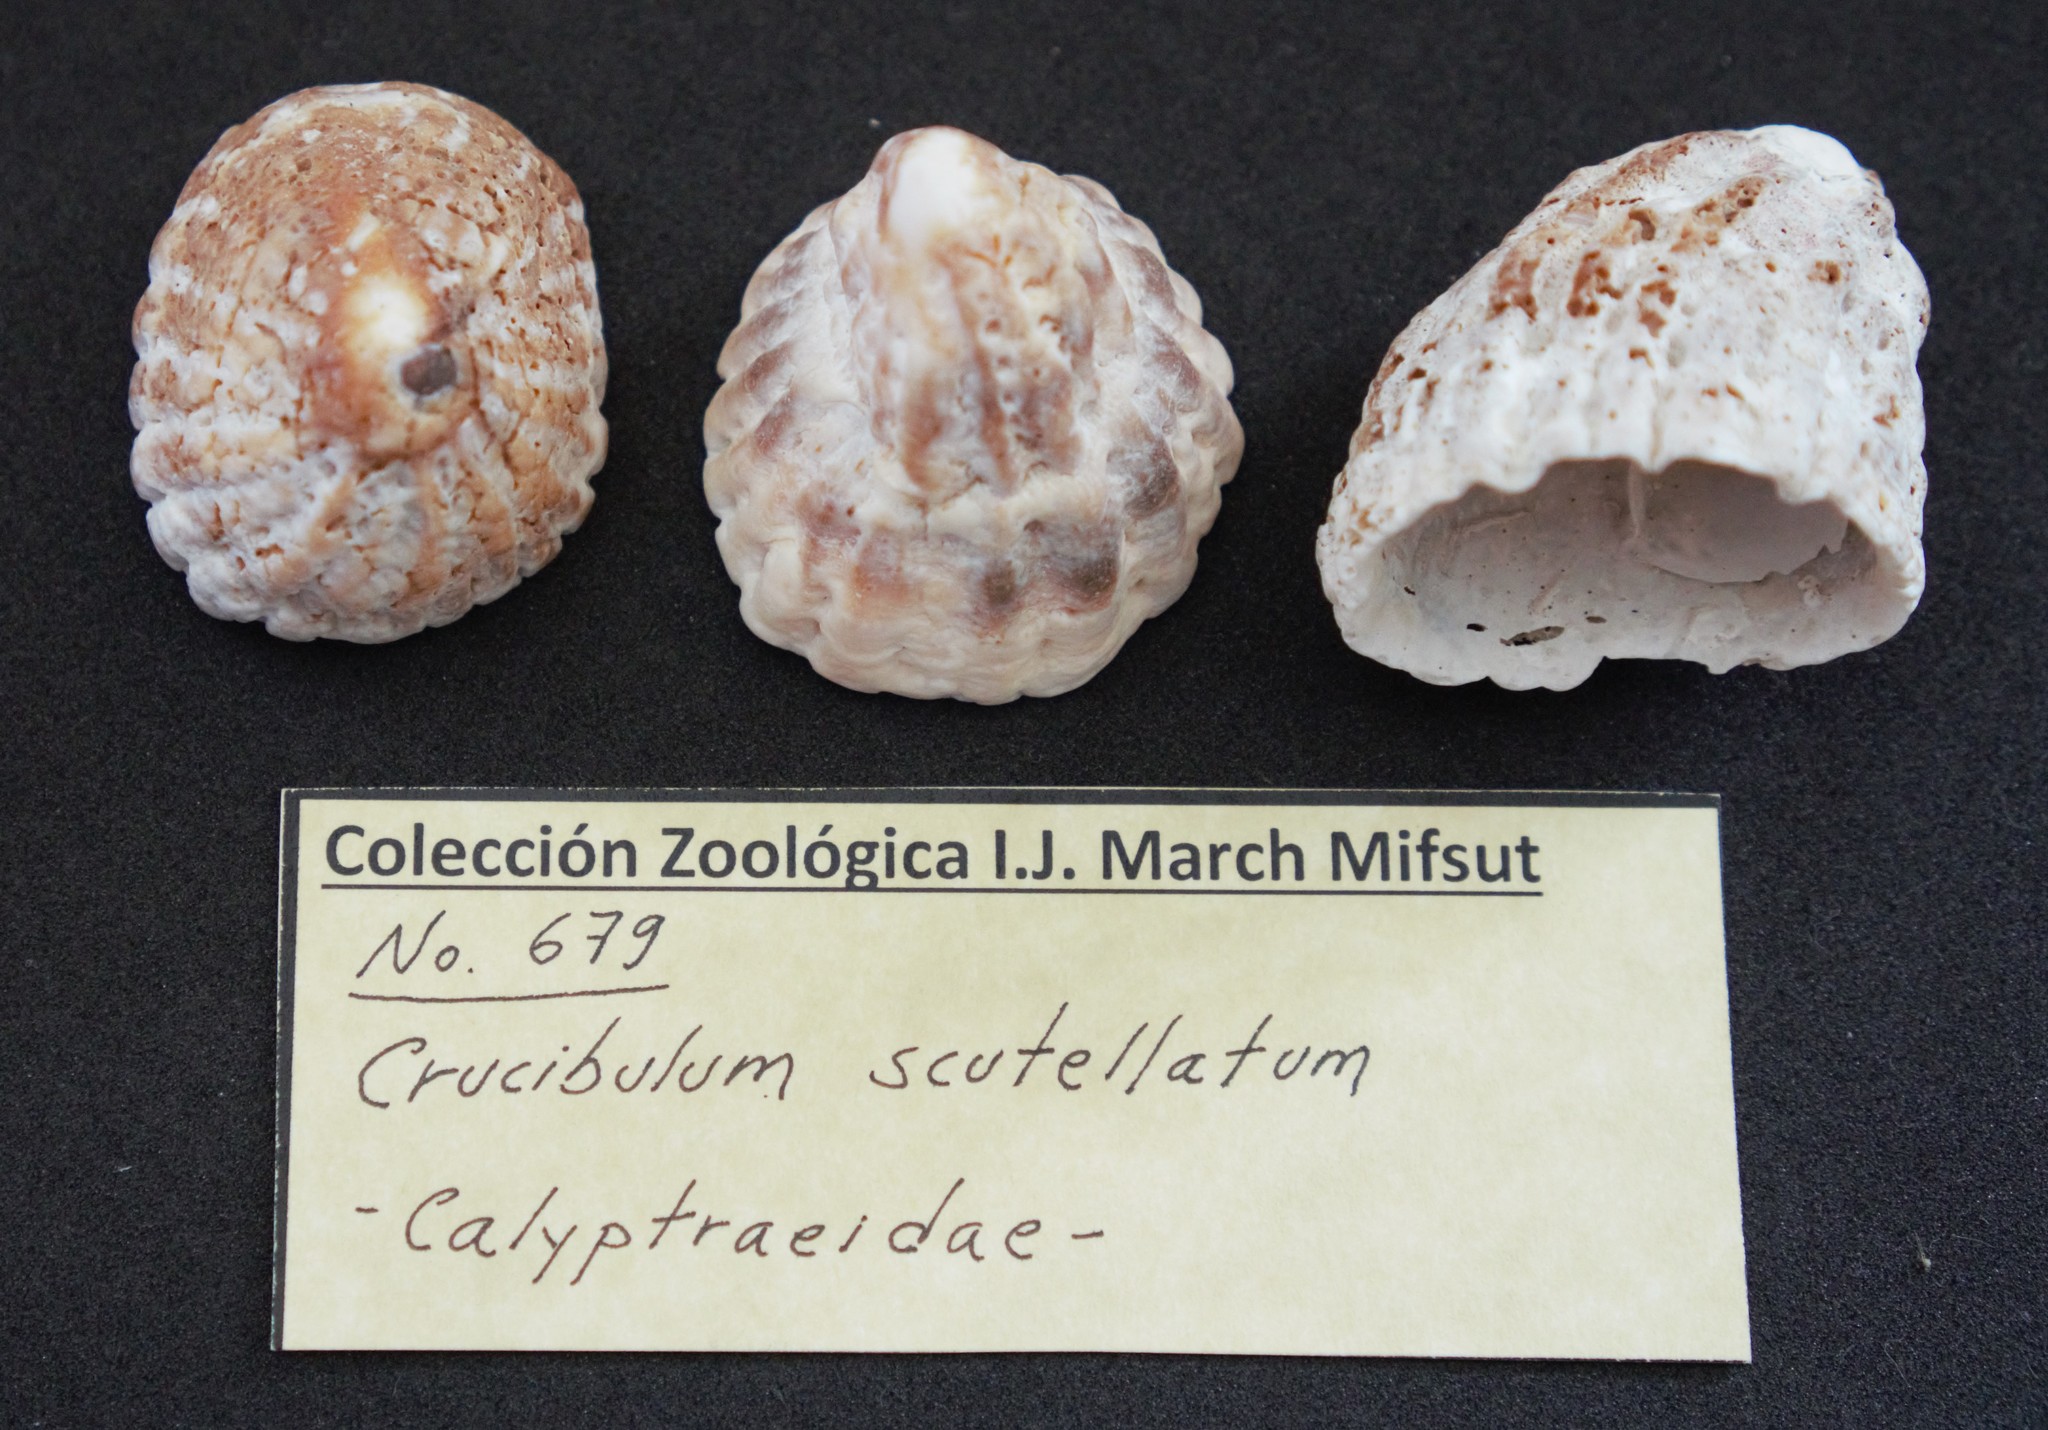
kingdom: Animalia
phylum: Mollusca
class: Gastropoda
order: Littorinimorpha
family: Calyptraeidae
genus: Crucibulum
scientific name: Crucibulum scutellatum
